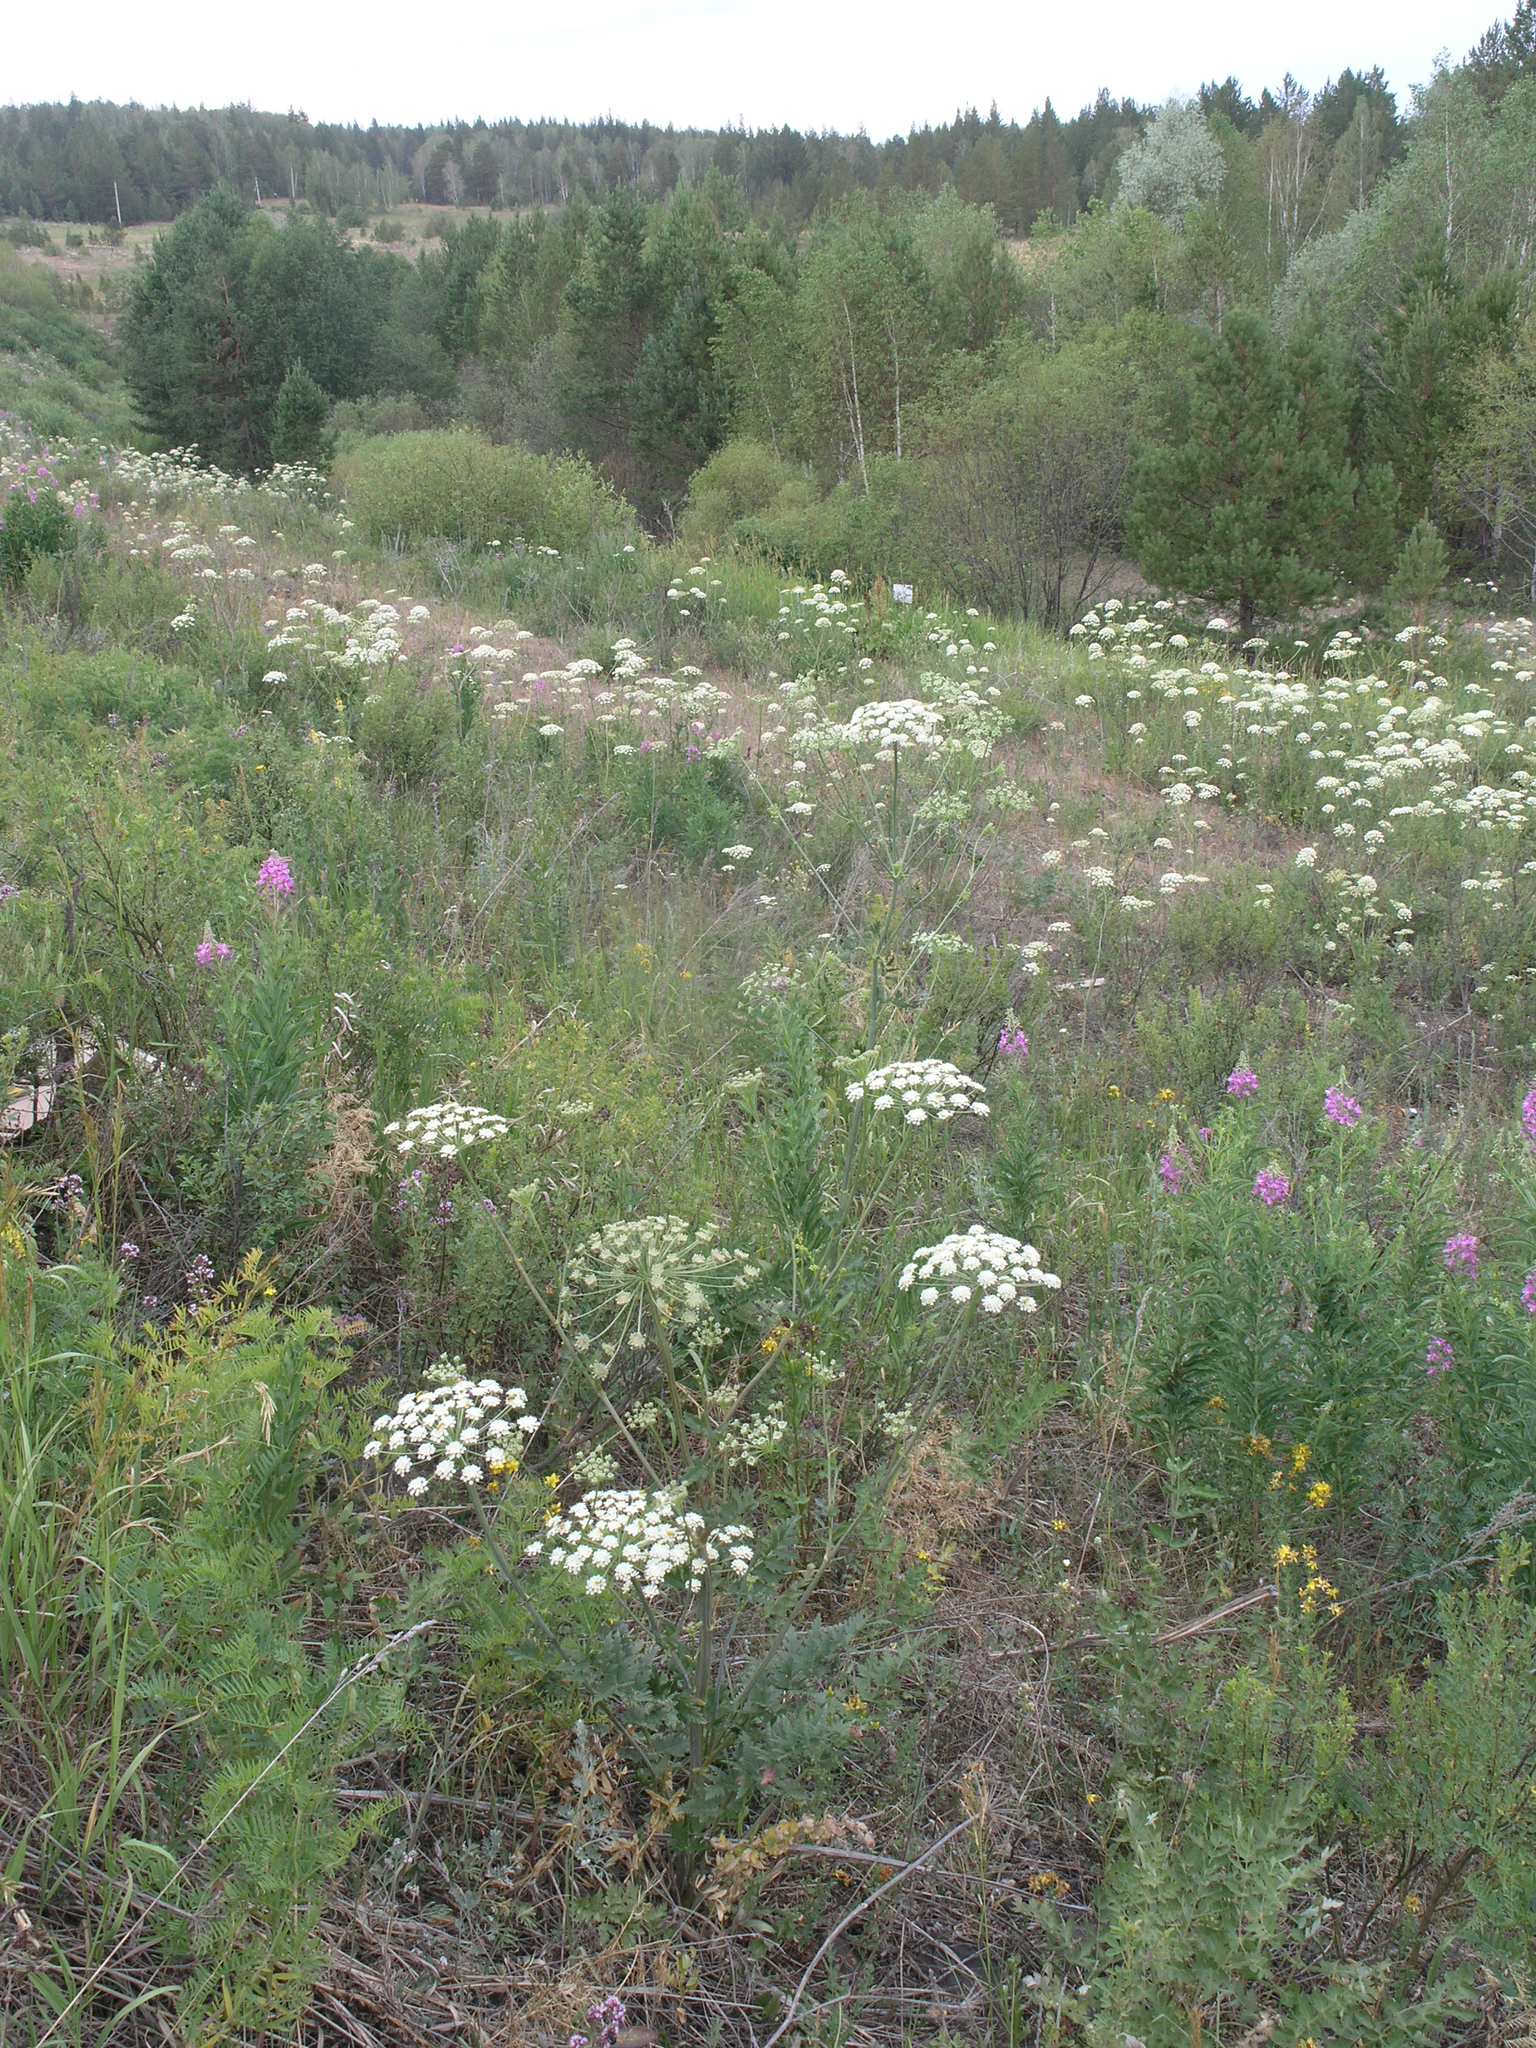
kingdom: Plantae
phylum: Tracheophyta
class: Magnoliopsida
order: Apiales
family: Apiaceae
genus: Seseli
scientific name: Seseli libanotis
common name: Mooncarrot
